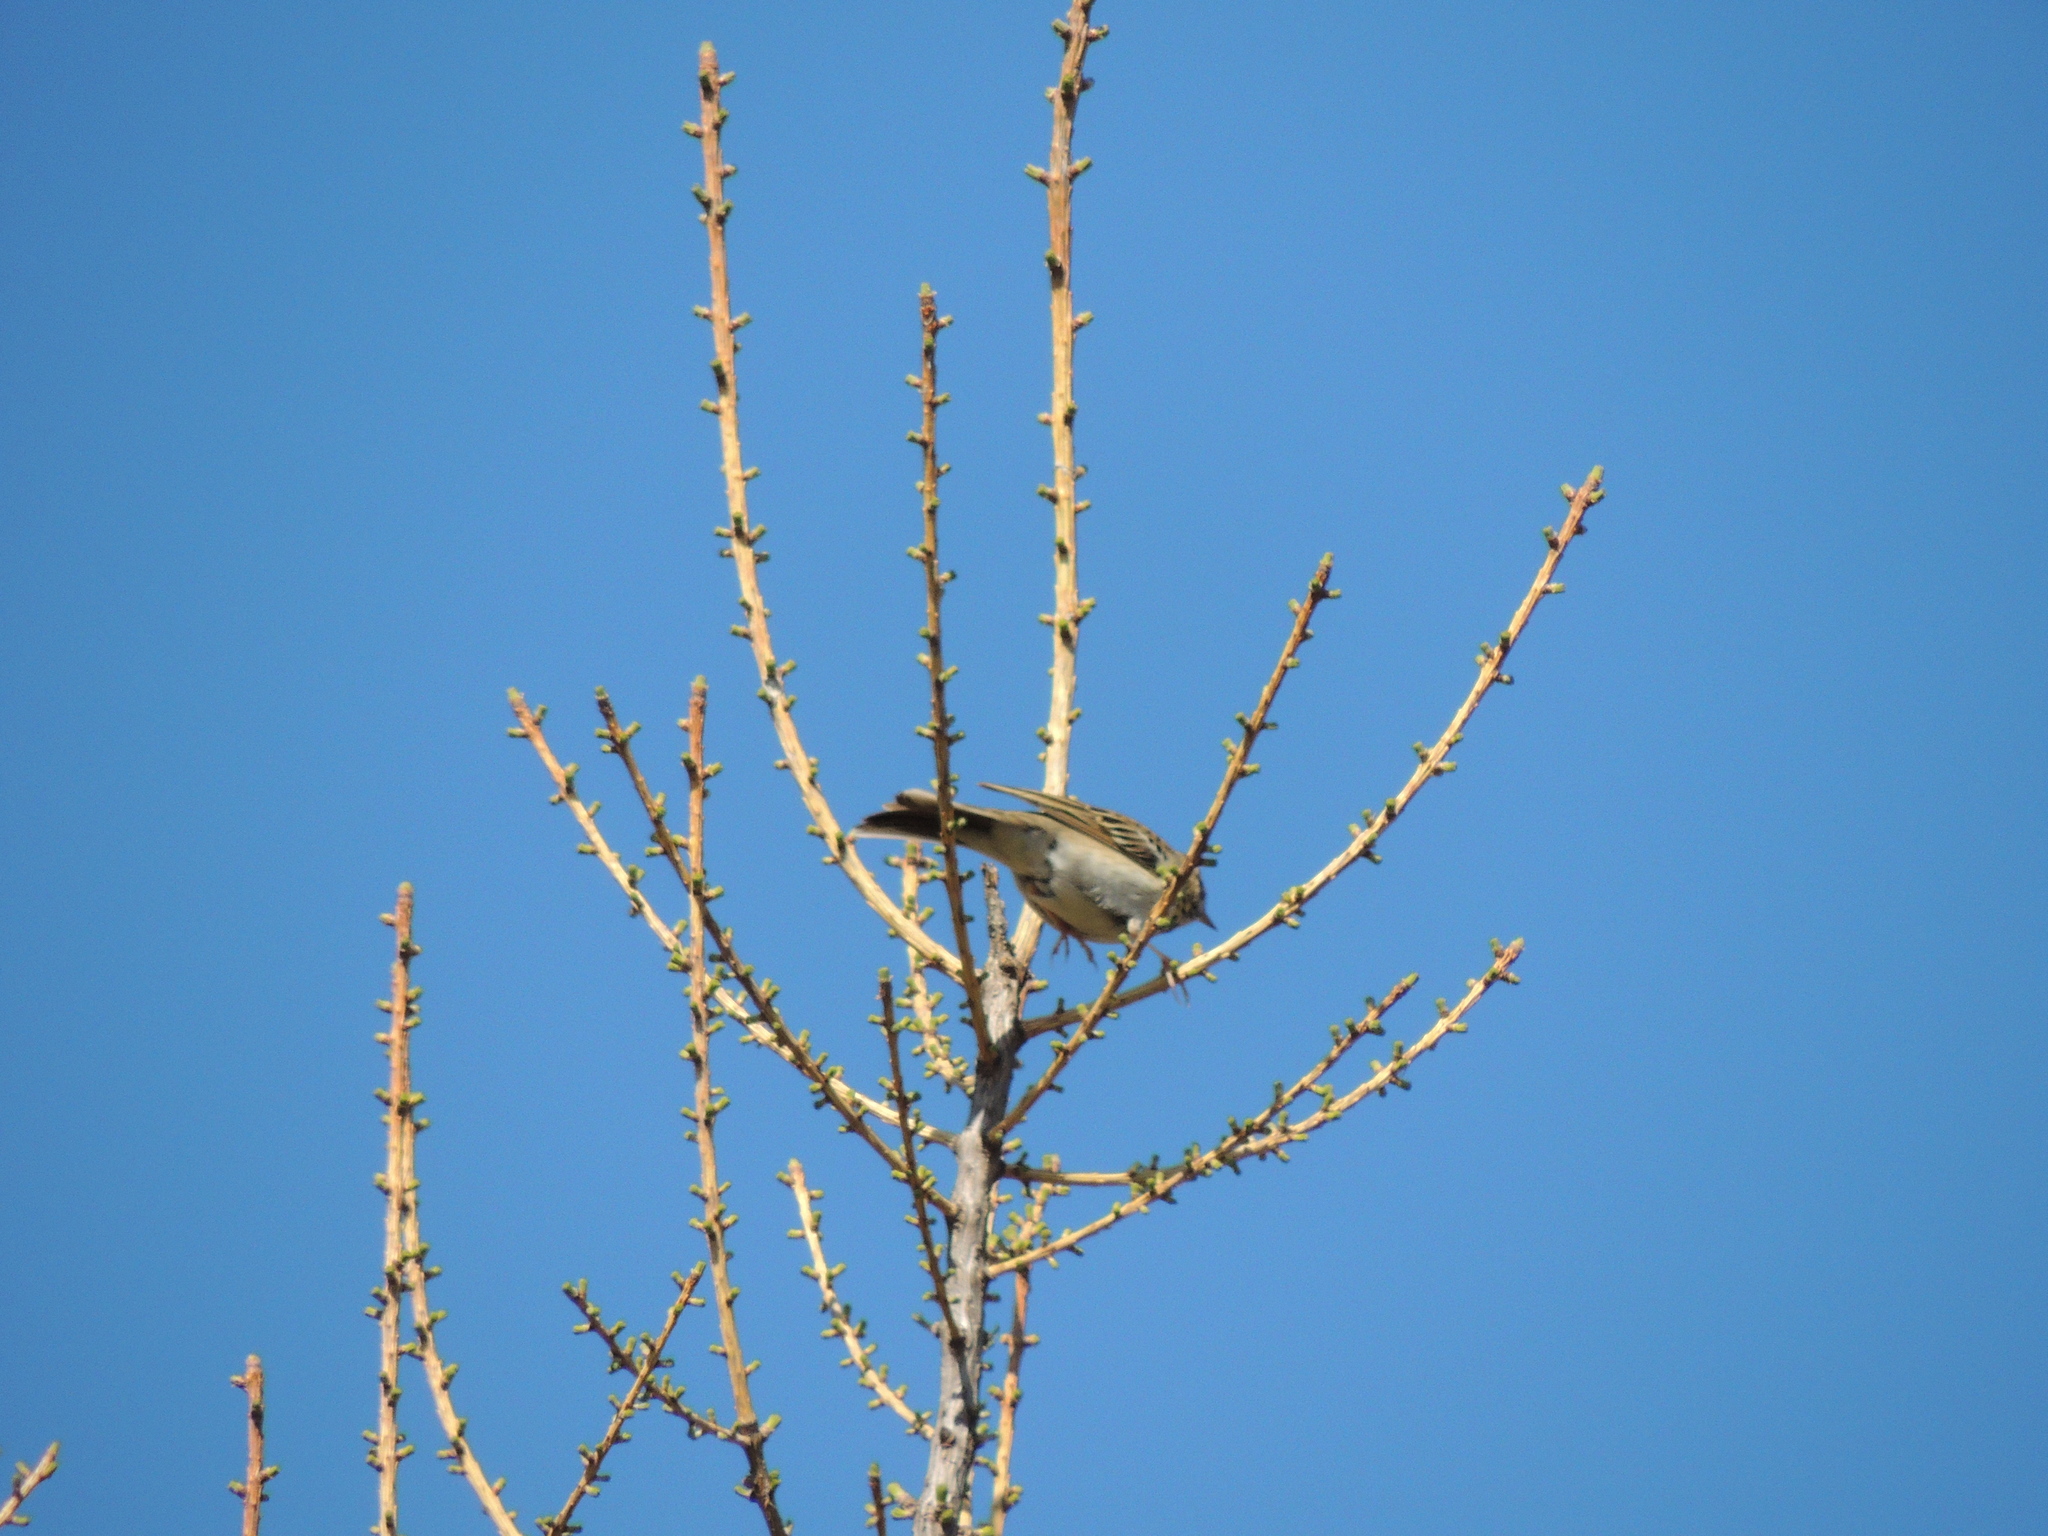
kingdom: Animalia
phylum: Chordata
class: Aves
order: Passeriformes
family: Motacillidae
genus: Anthus
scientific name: Anthus trivialis
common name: Tree pipit
